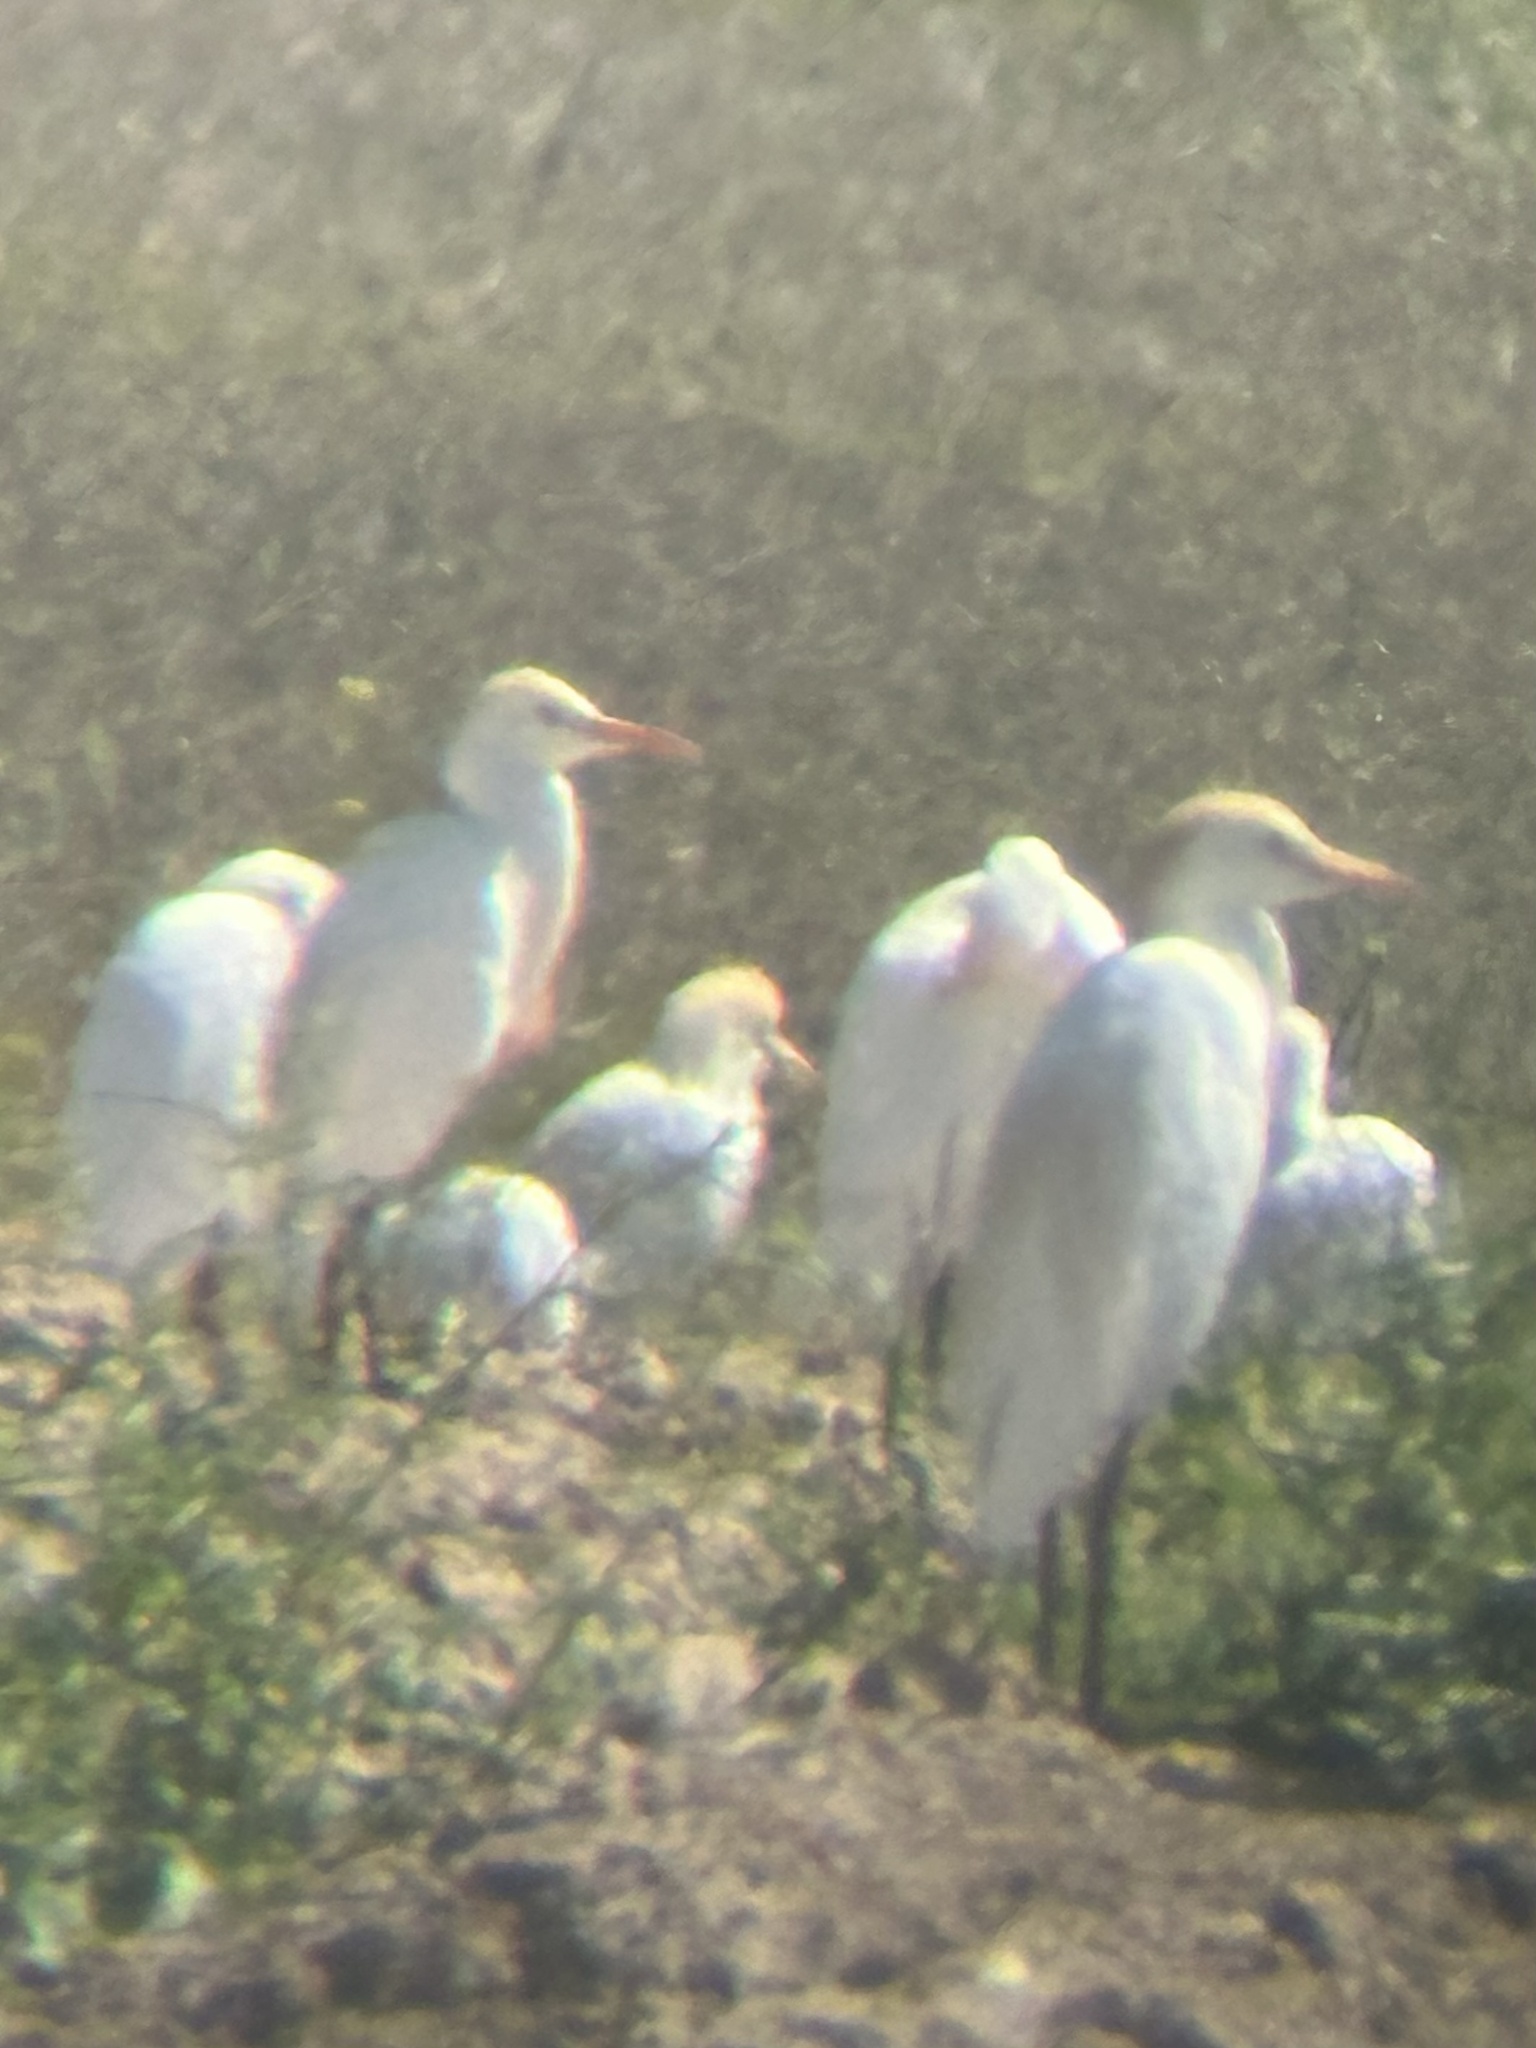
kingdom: Animalia
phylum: Chordata
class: Aves
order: Pelecaniformes
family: Ardeidae
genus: Bubulcus
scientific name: Bubulcus ibis
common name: Cattle egret
